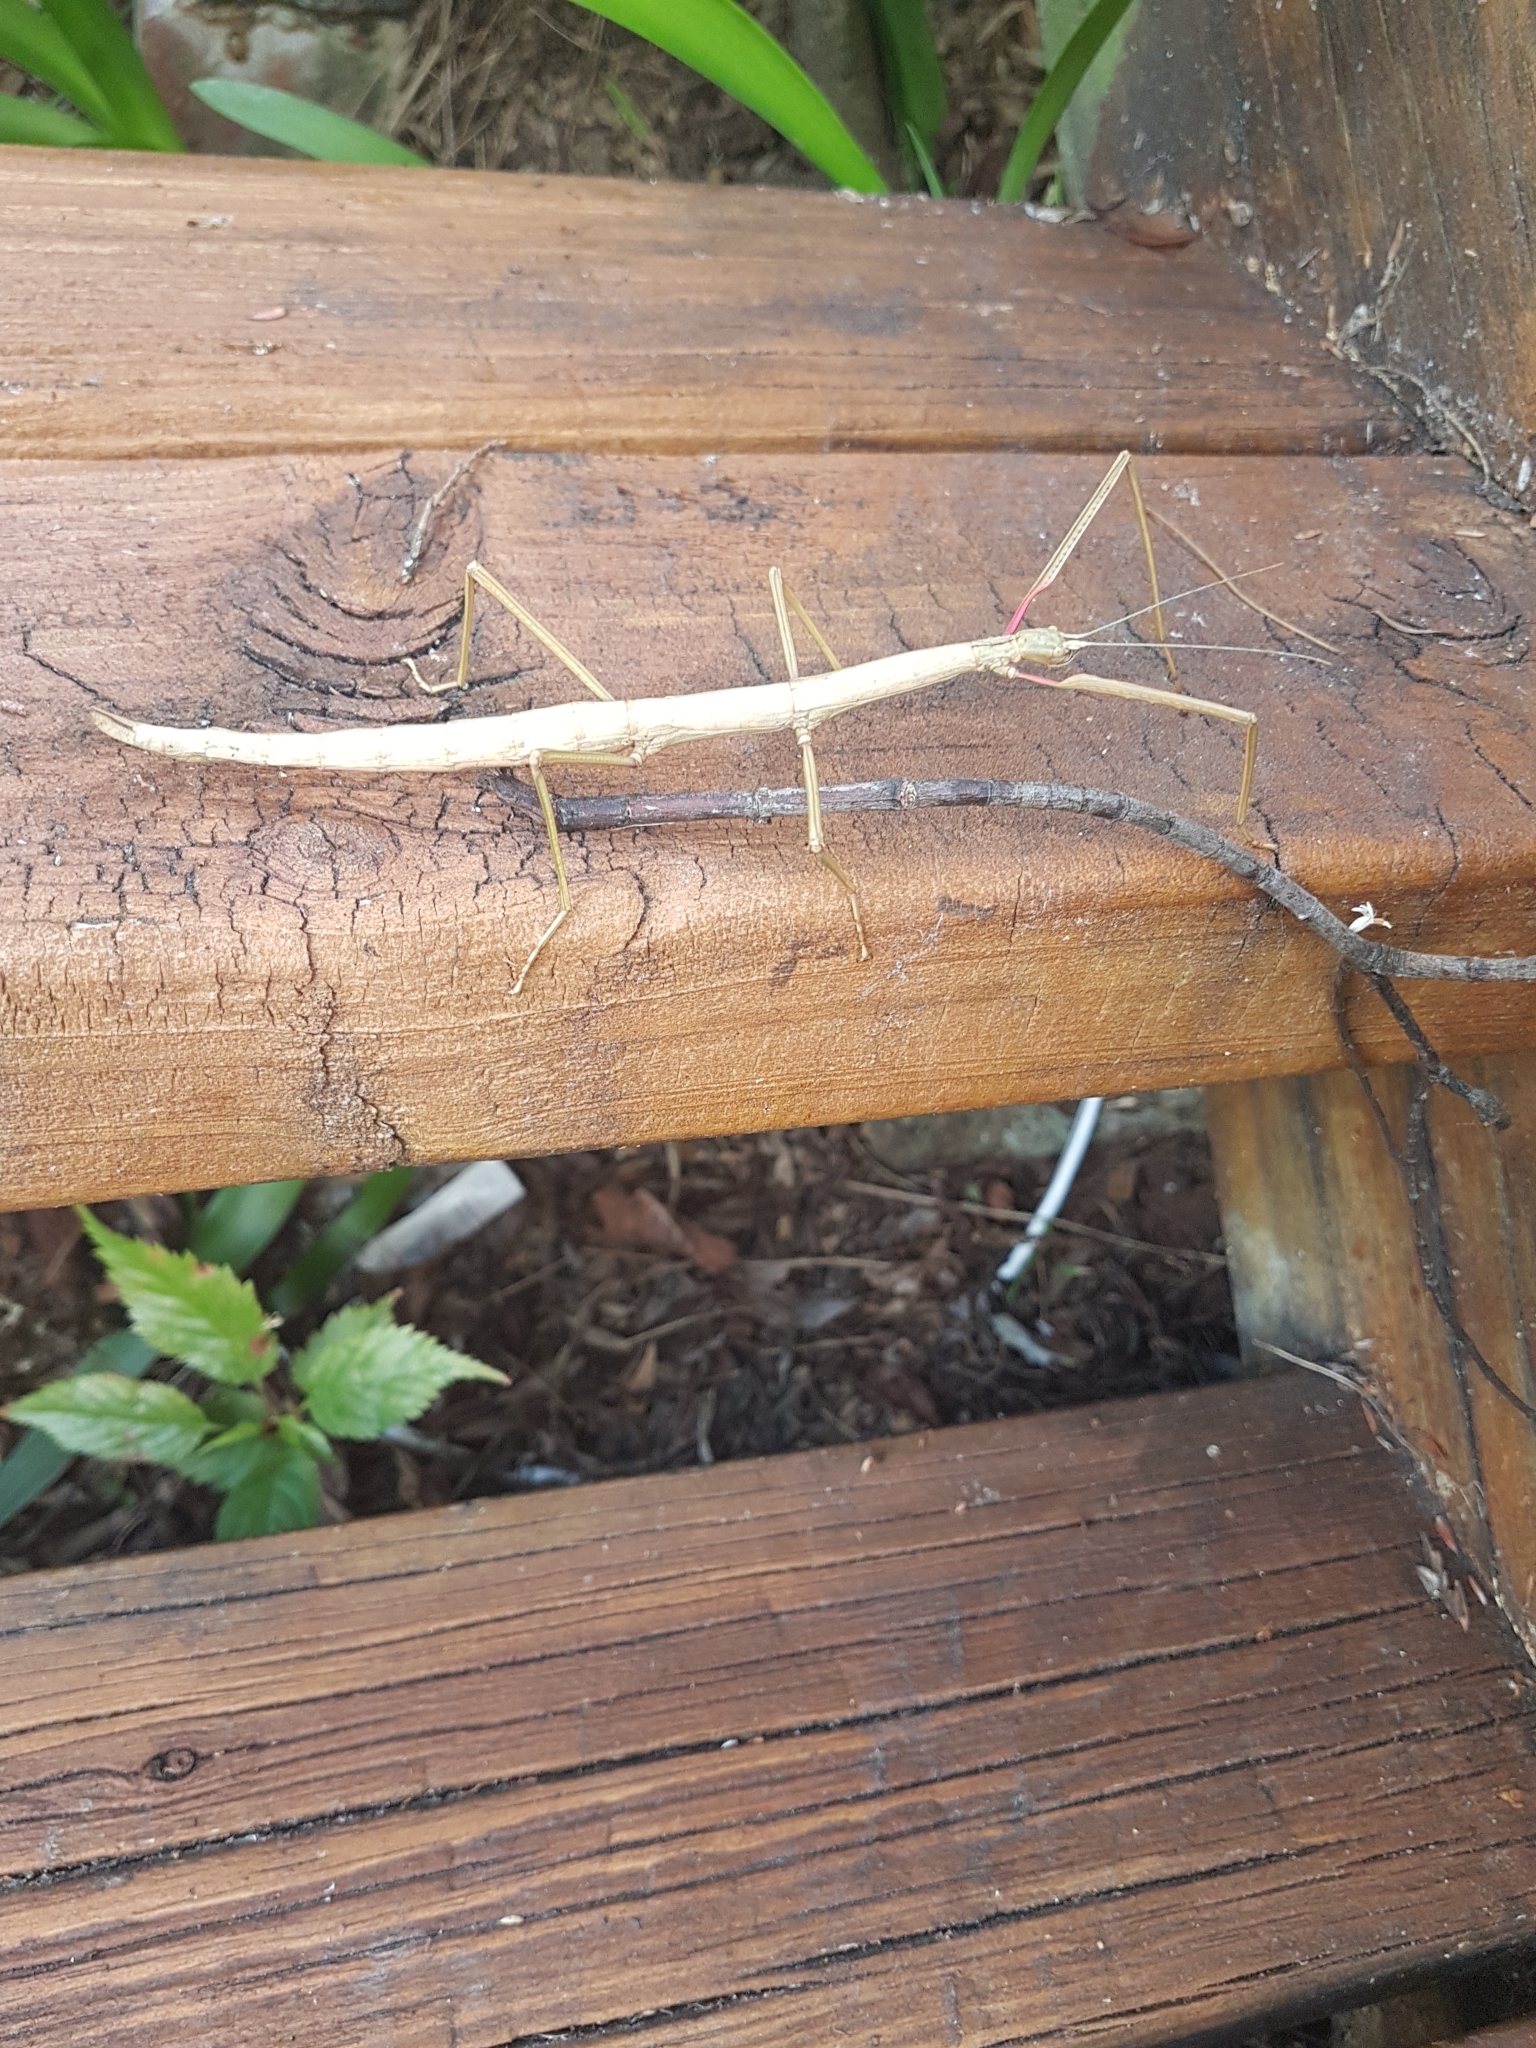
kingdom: Animalia
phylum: Arthropoda
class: Insecta
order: Phasmida
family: Phasmatidae
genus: Acanthoxyla
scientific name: Acanthoxyla inermis
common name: Unarmed stick insect
